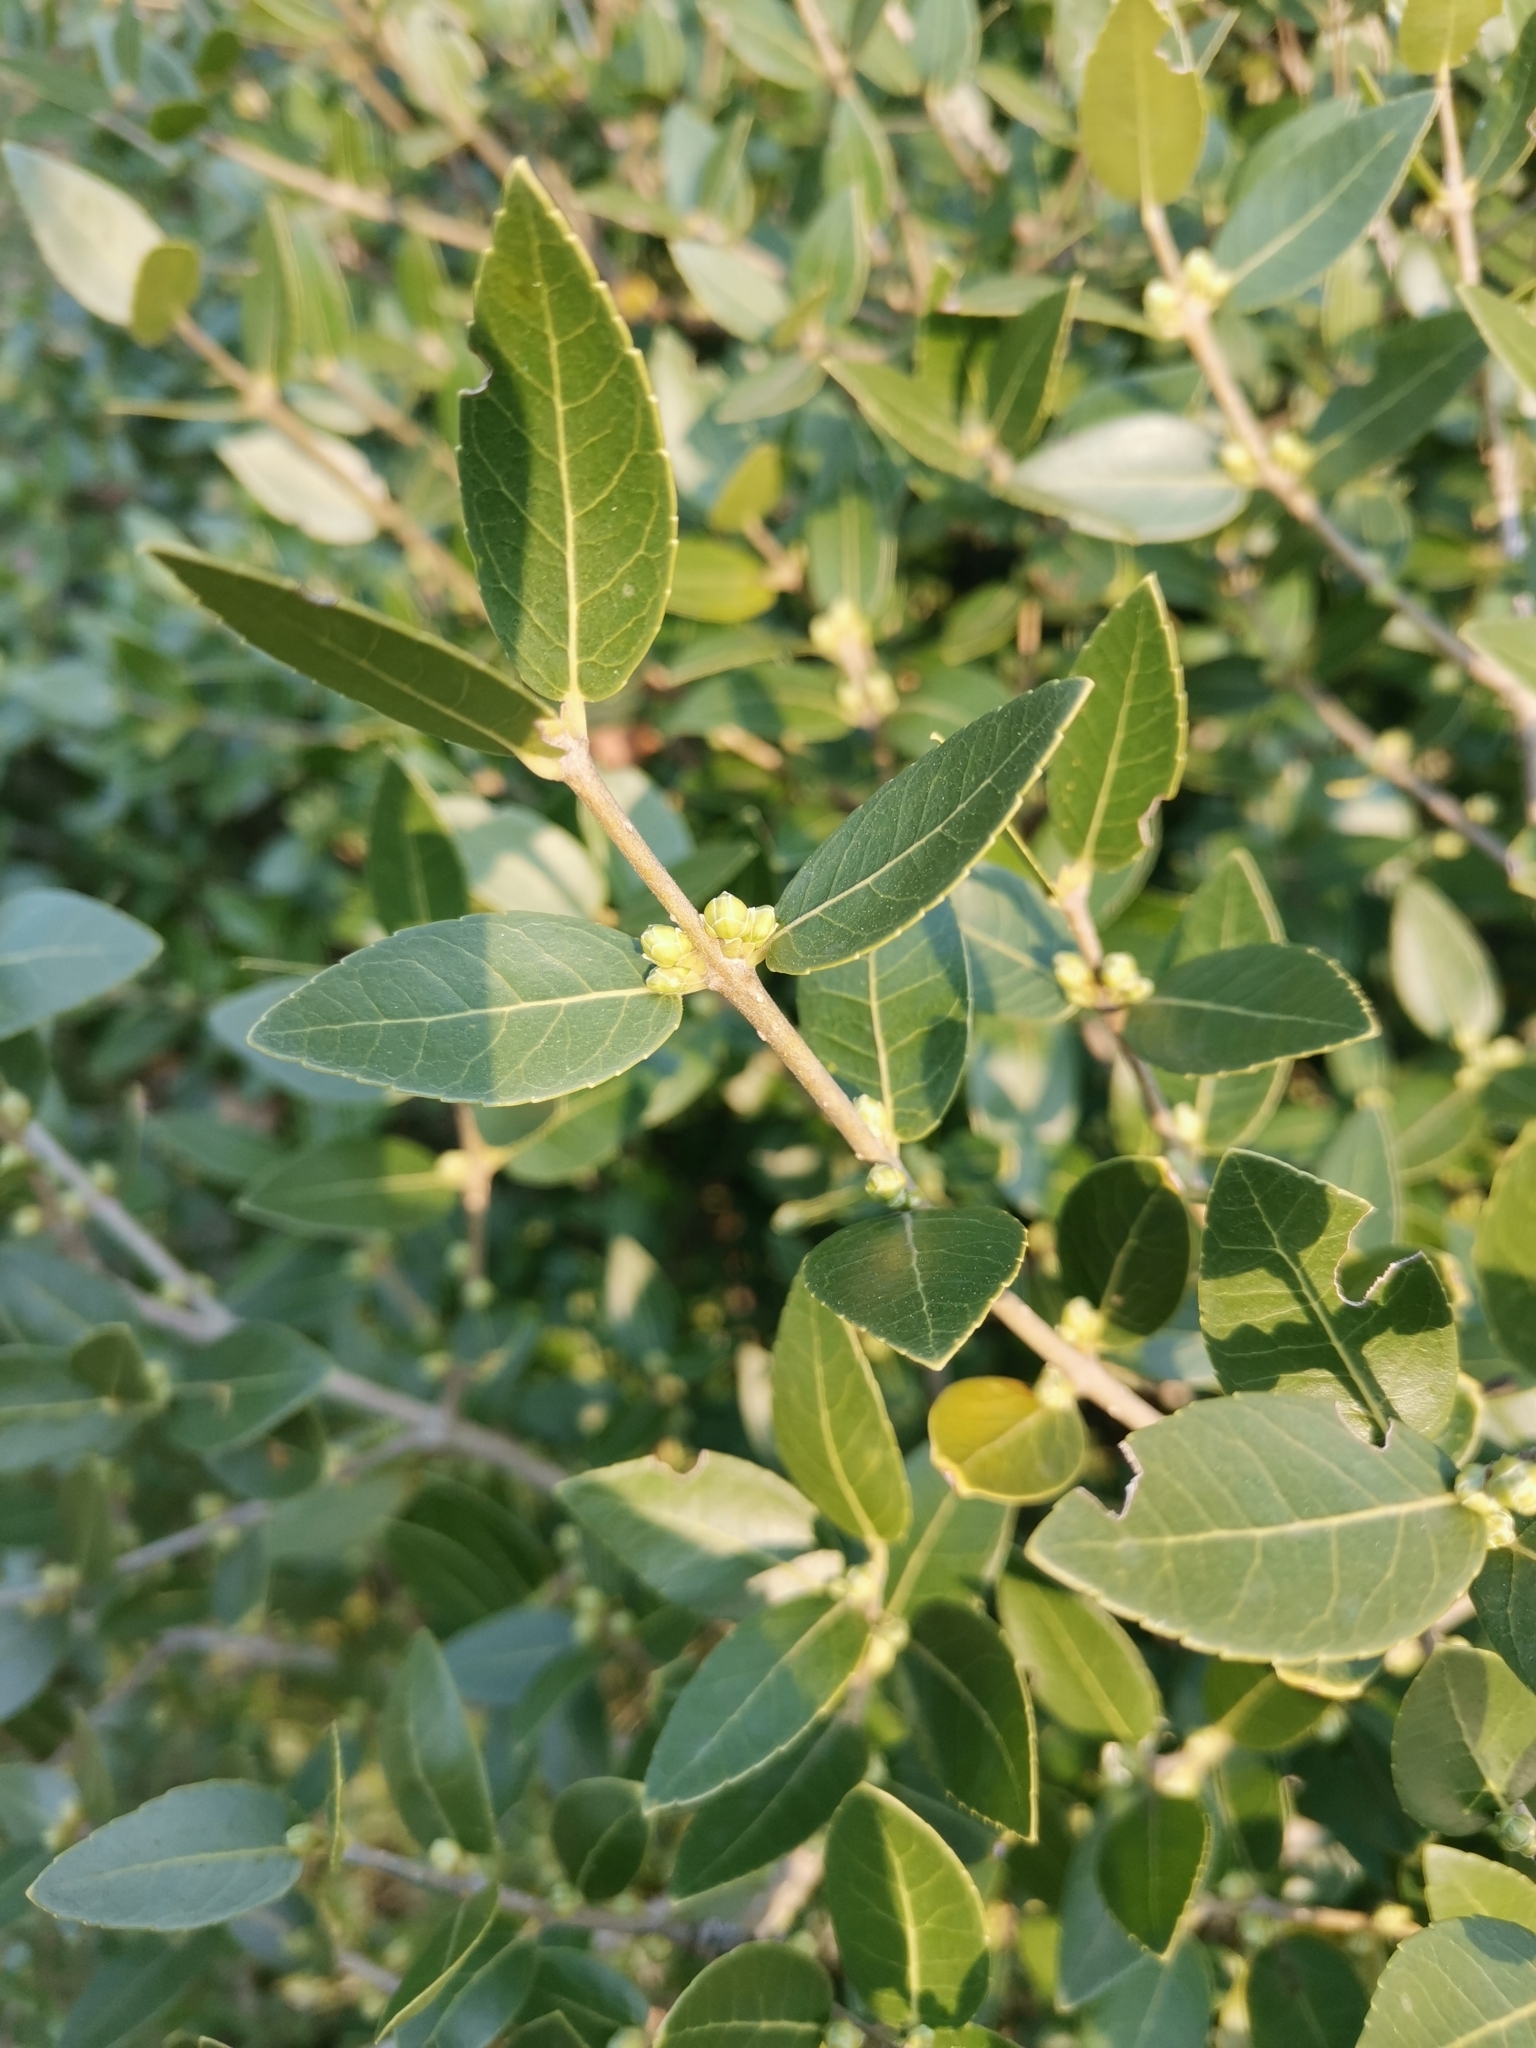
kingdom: Plantae
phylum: Tracheophyta
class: Magnoliopsida
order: Lamiales
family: Oleaceae
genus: Phillyrea
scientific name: Phillyrea latifolia
